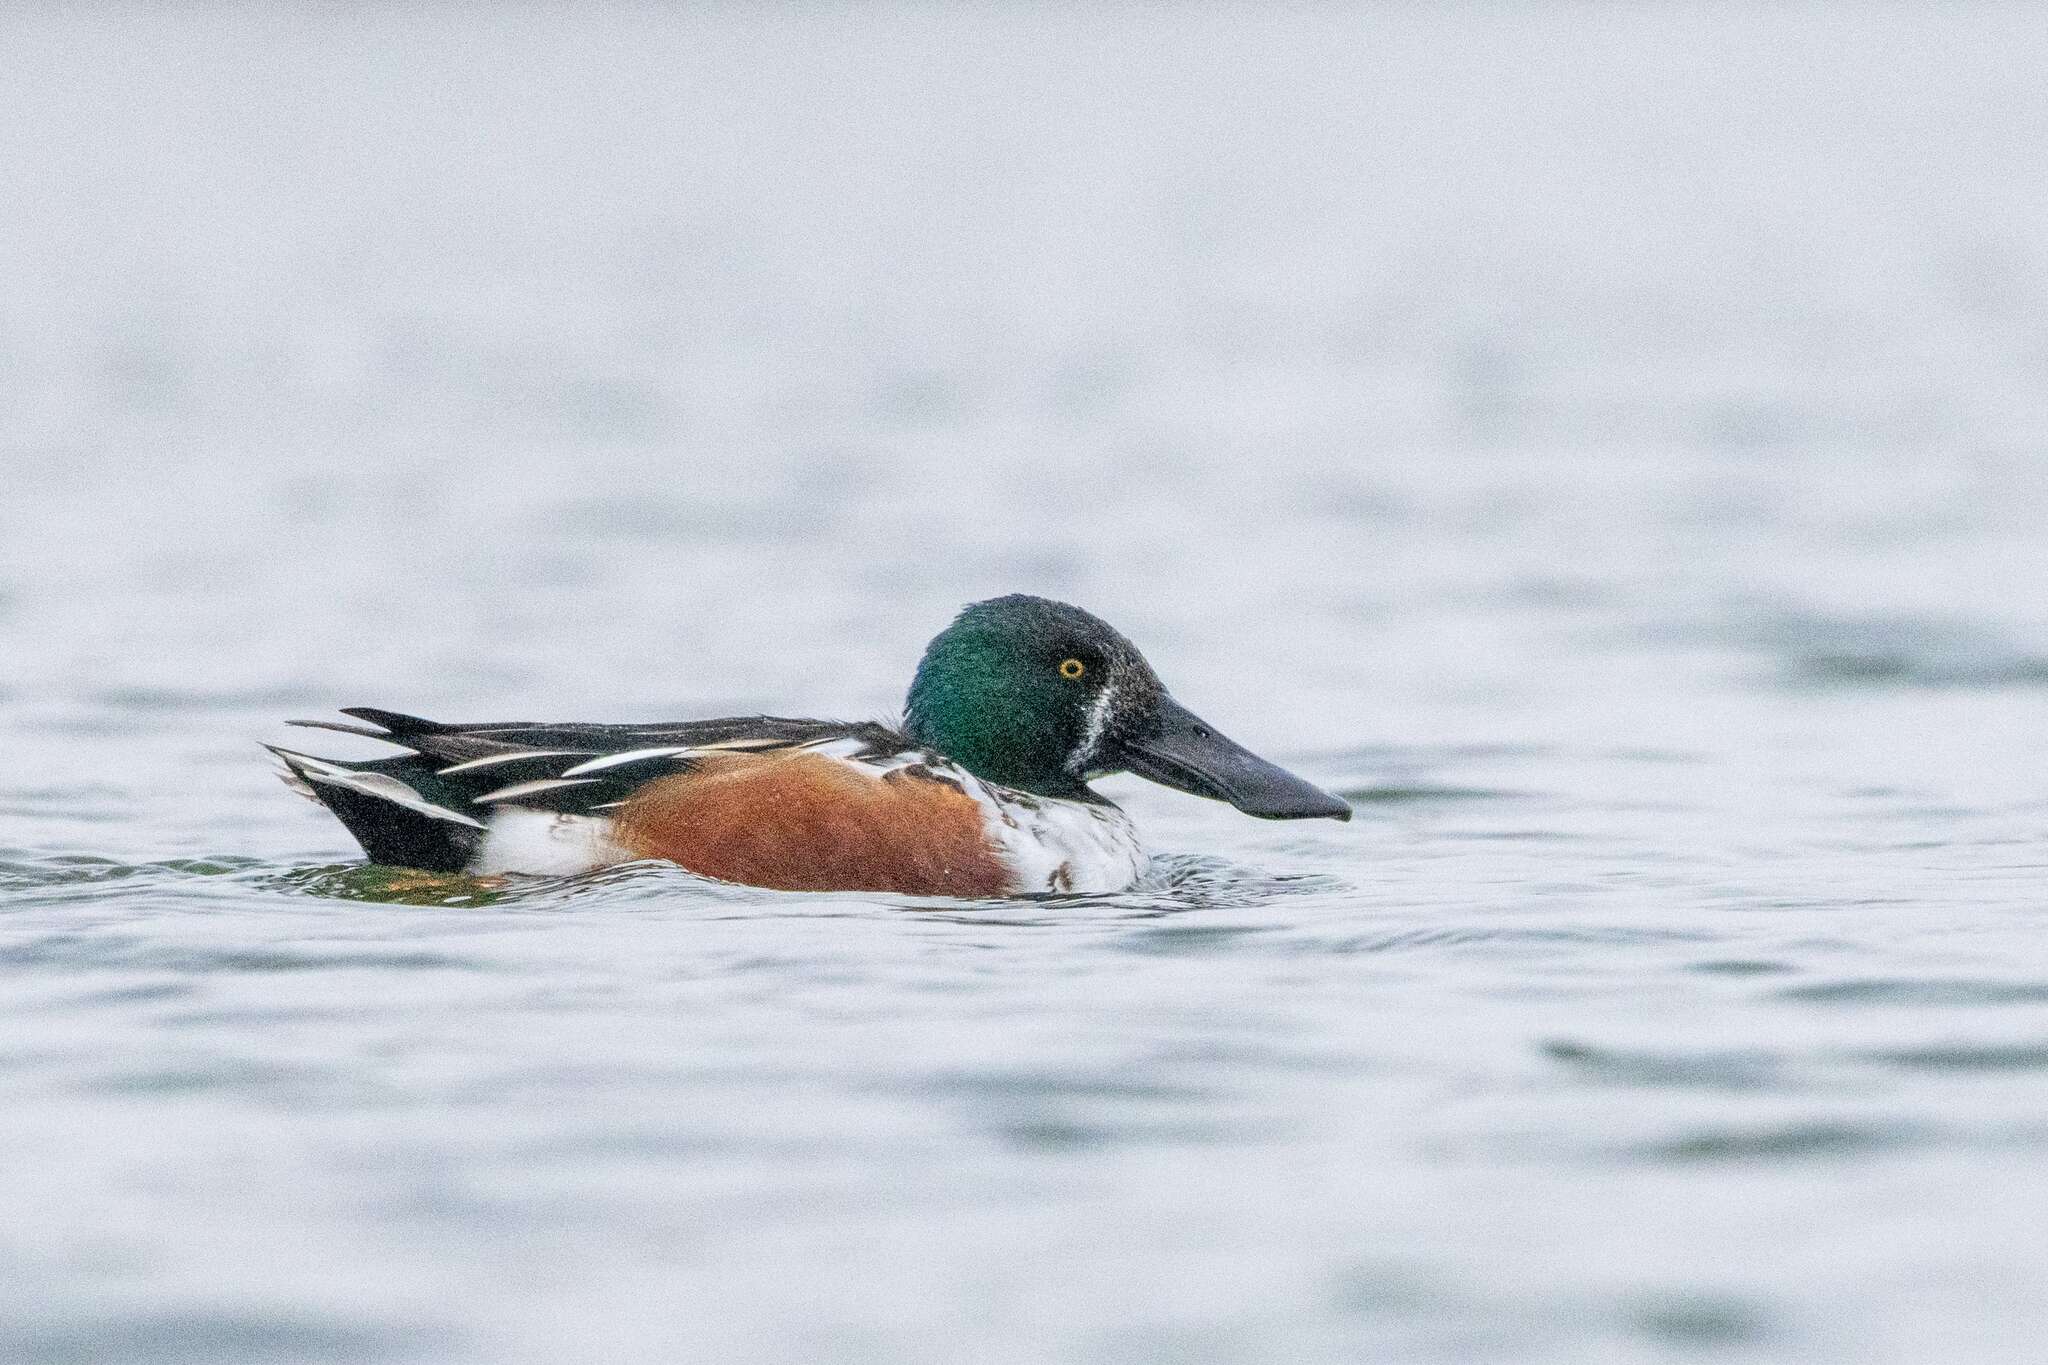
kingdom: Animalia
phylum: Chordata
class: Aves
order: Anseriformes
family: Anatidae
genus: Spatula
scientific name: Spatula clypeata
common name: Northern shoveler
